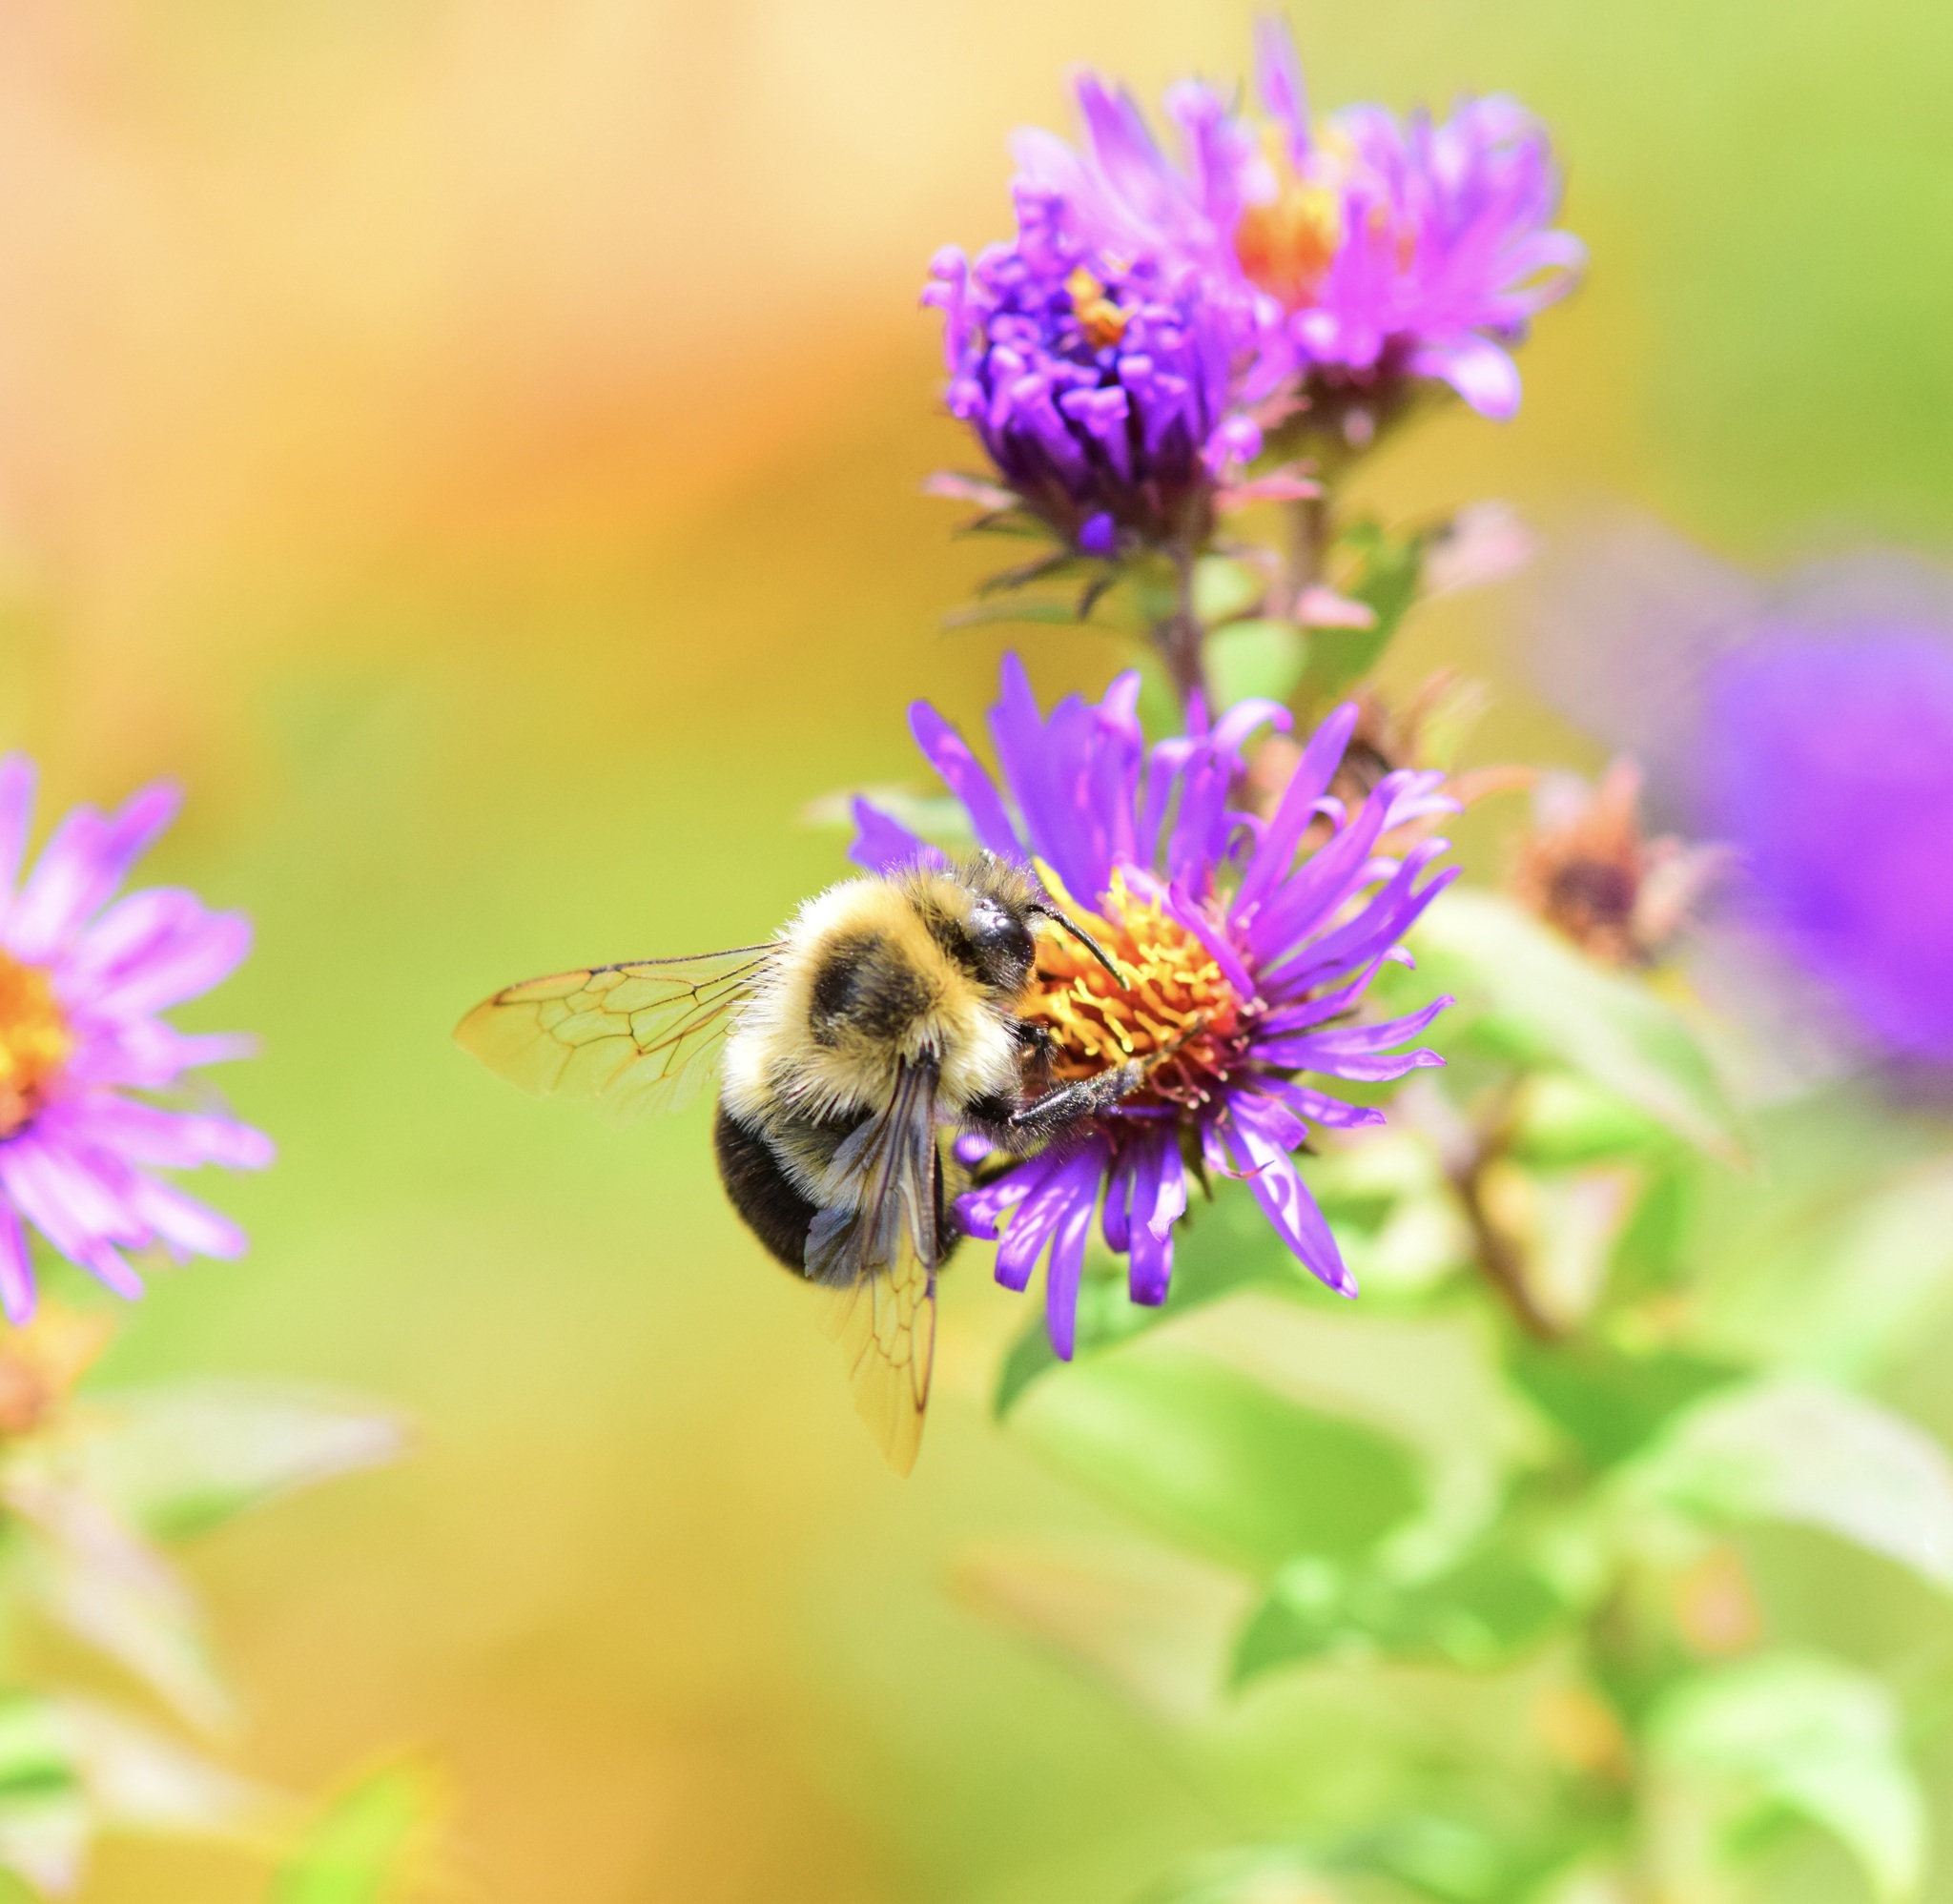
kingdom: Animalia
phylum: Arthropoda
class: Insecta
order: Hymenoptera
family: Apidae
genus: Bombus
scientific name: Bombus impatiens
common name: Common eastern bumble bee
